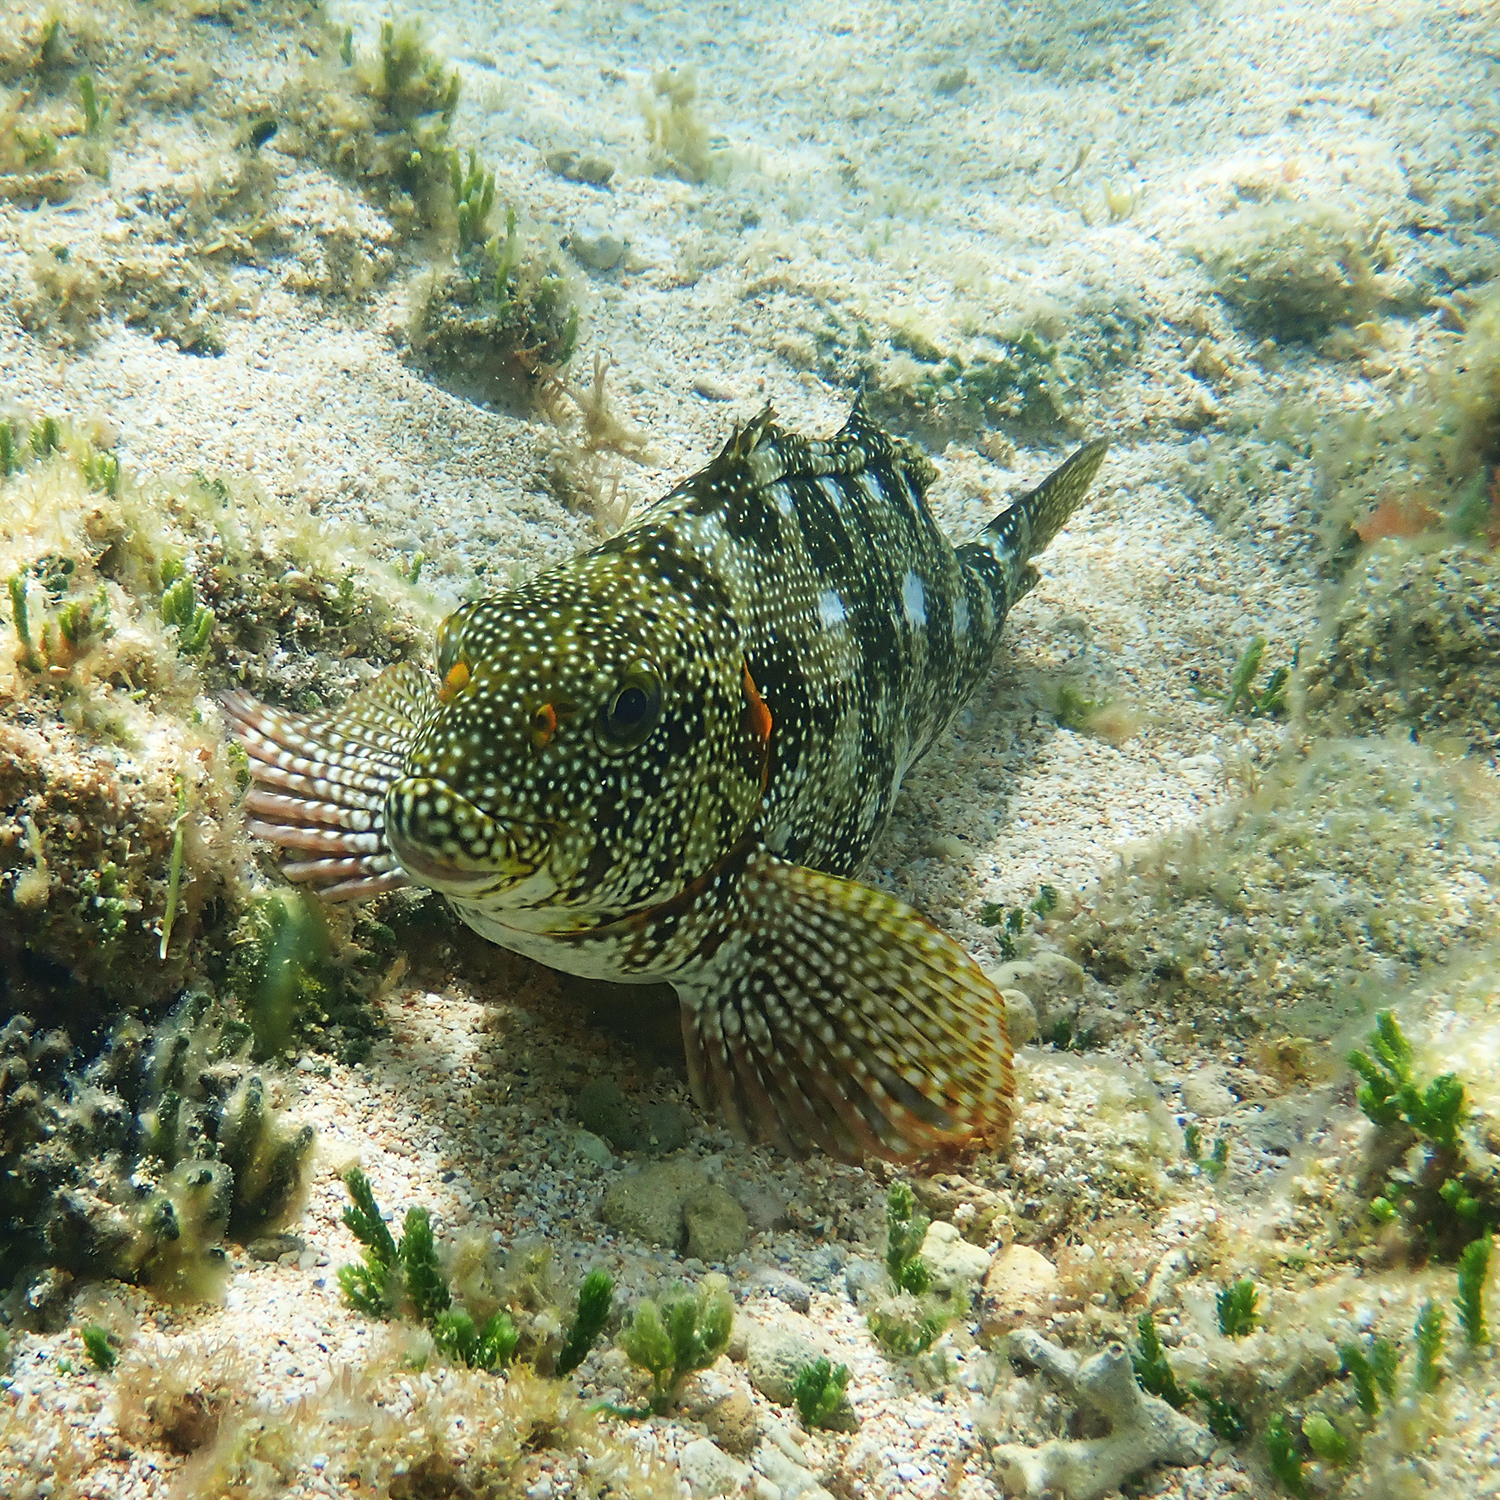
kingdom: Animalia
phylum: Chordata
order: Perciformes
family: Aplodactylidae
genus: Aplodactylus
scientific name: Aplodactylus etheridgii
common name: Notchheaded marblefish
